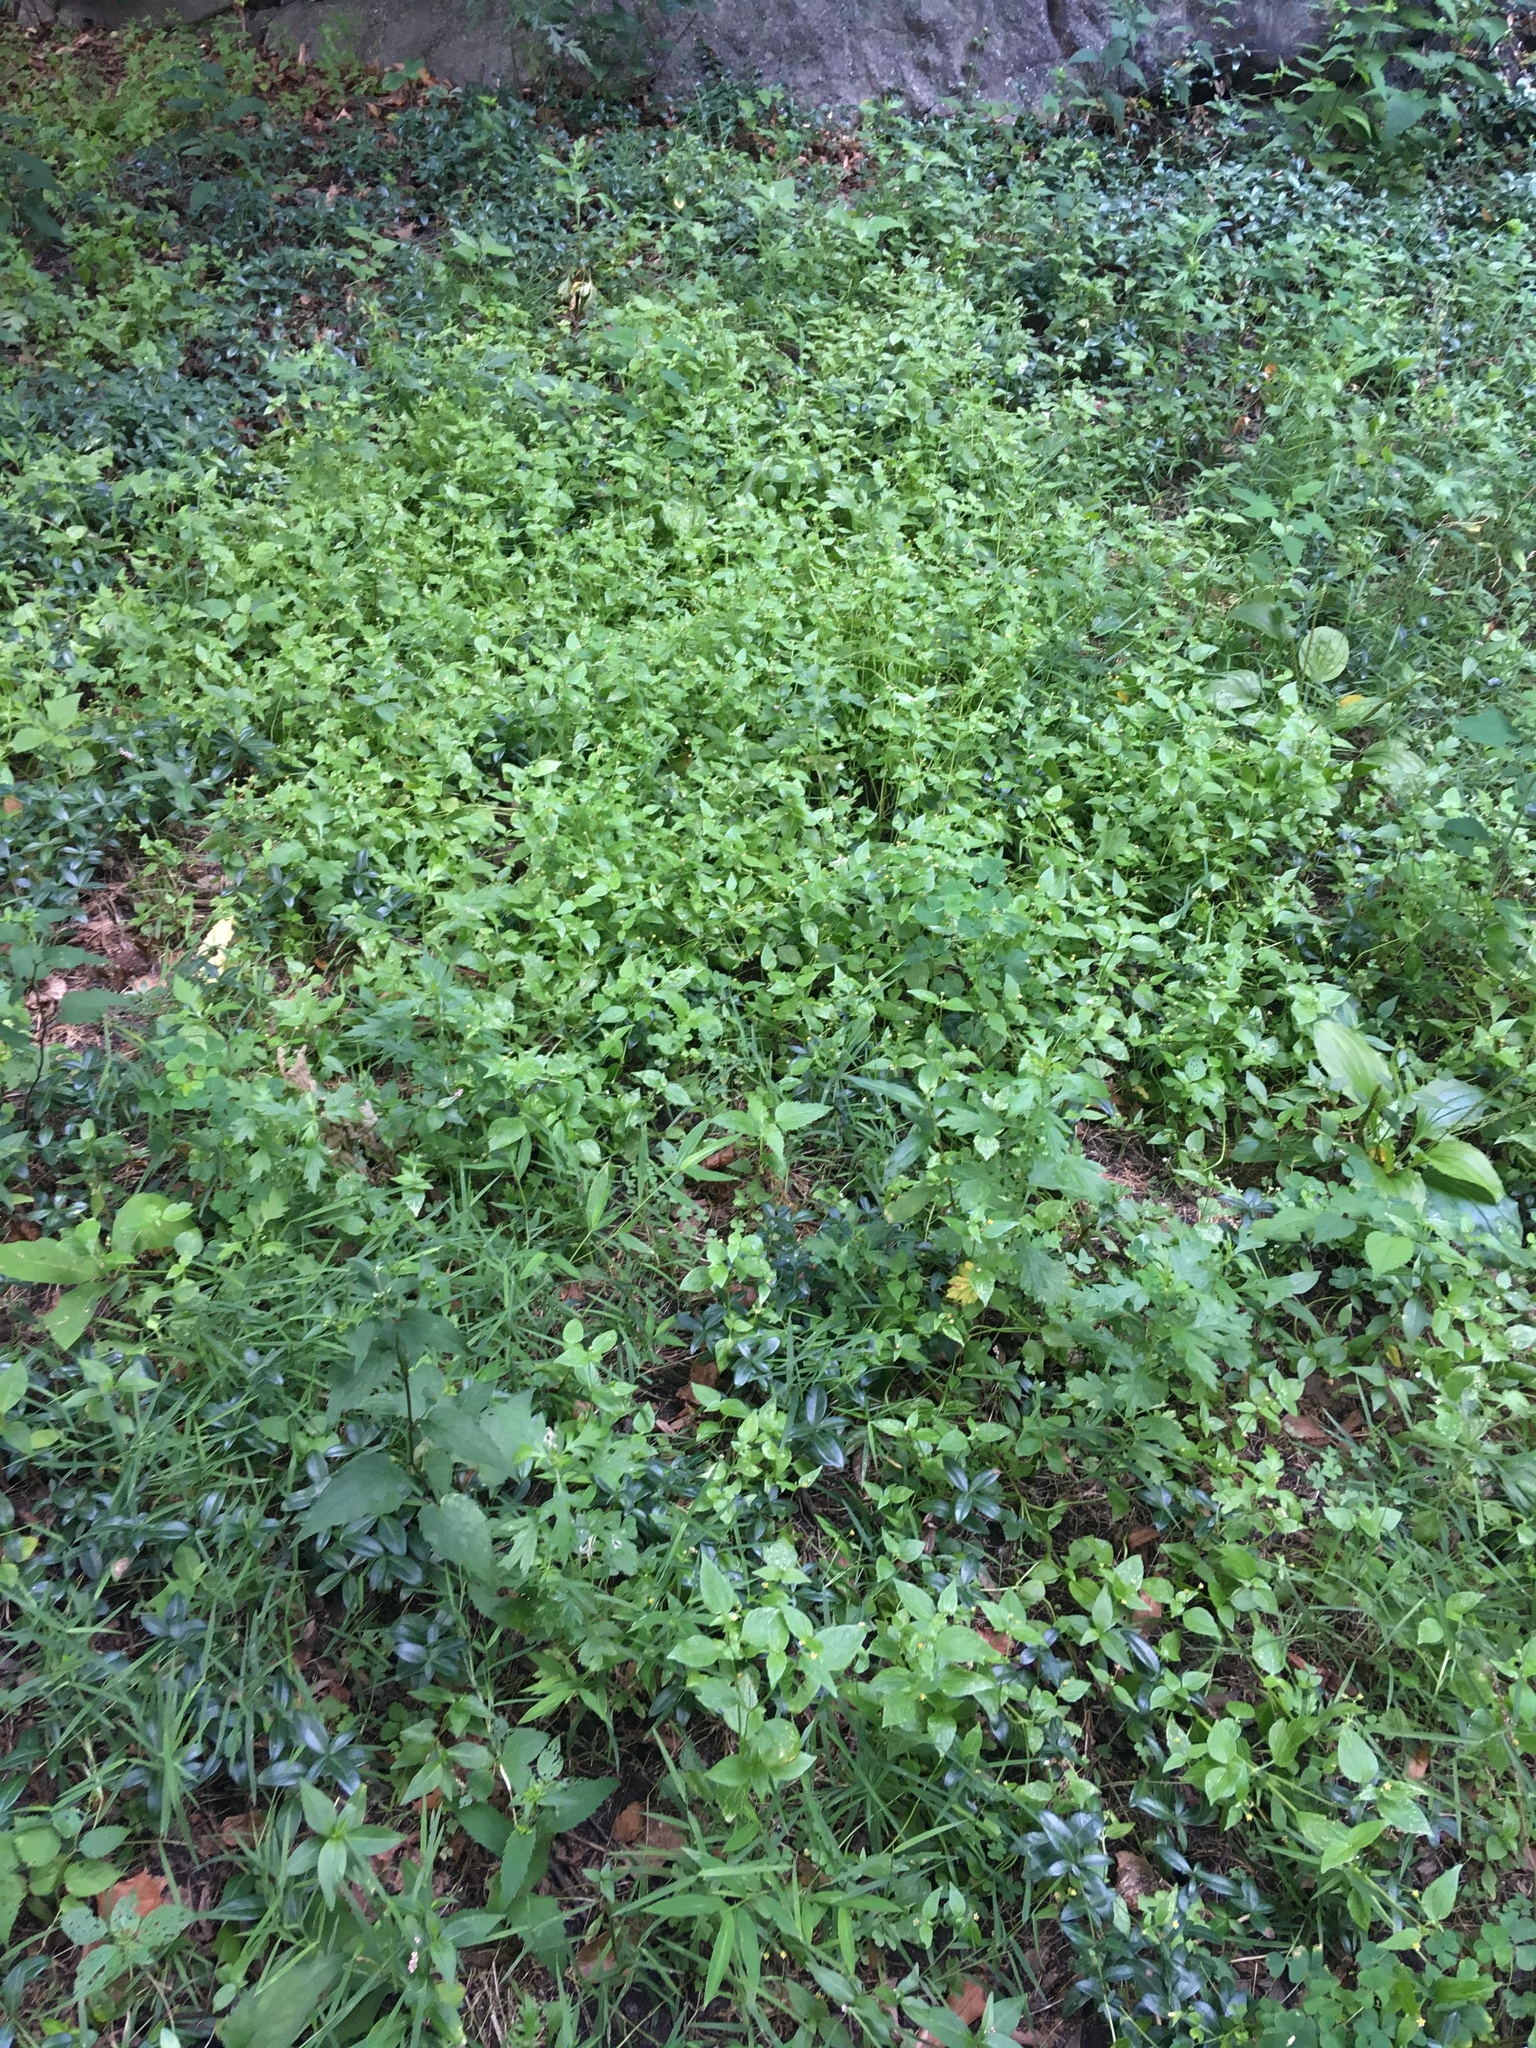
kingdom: Plantae
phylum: Tracheophyta
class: Magnoliopsida
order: Asterales
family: Asteraceae
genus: Galinsoga
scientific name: Galinsoga parviflora
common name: Gallant soldier
